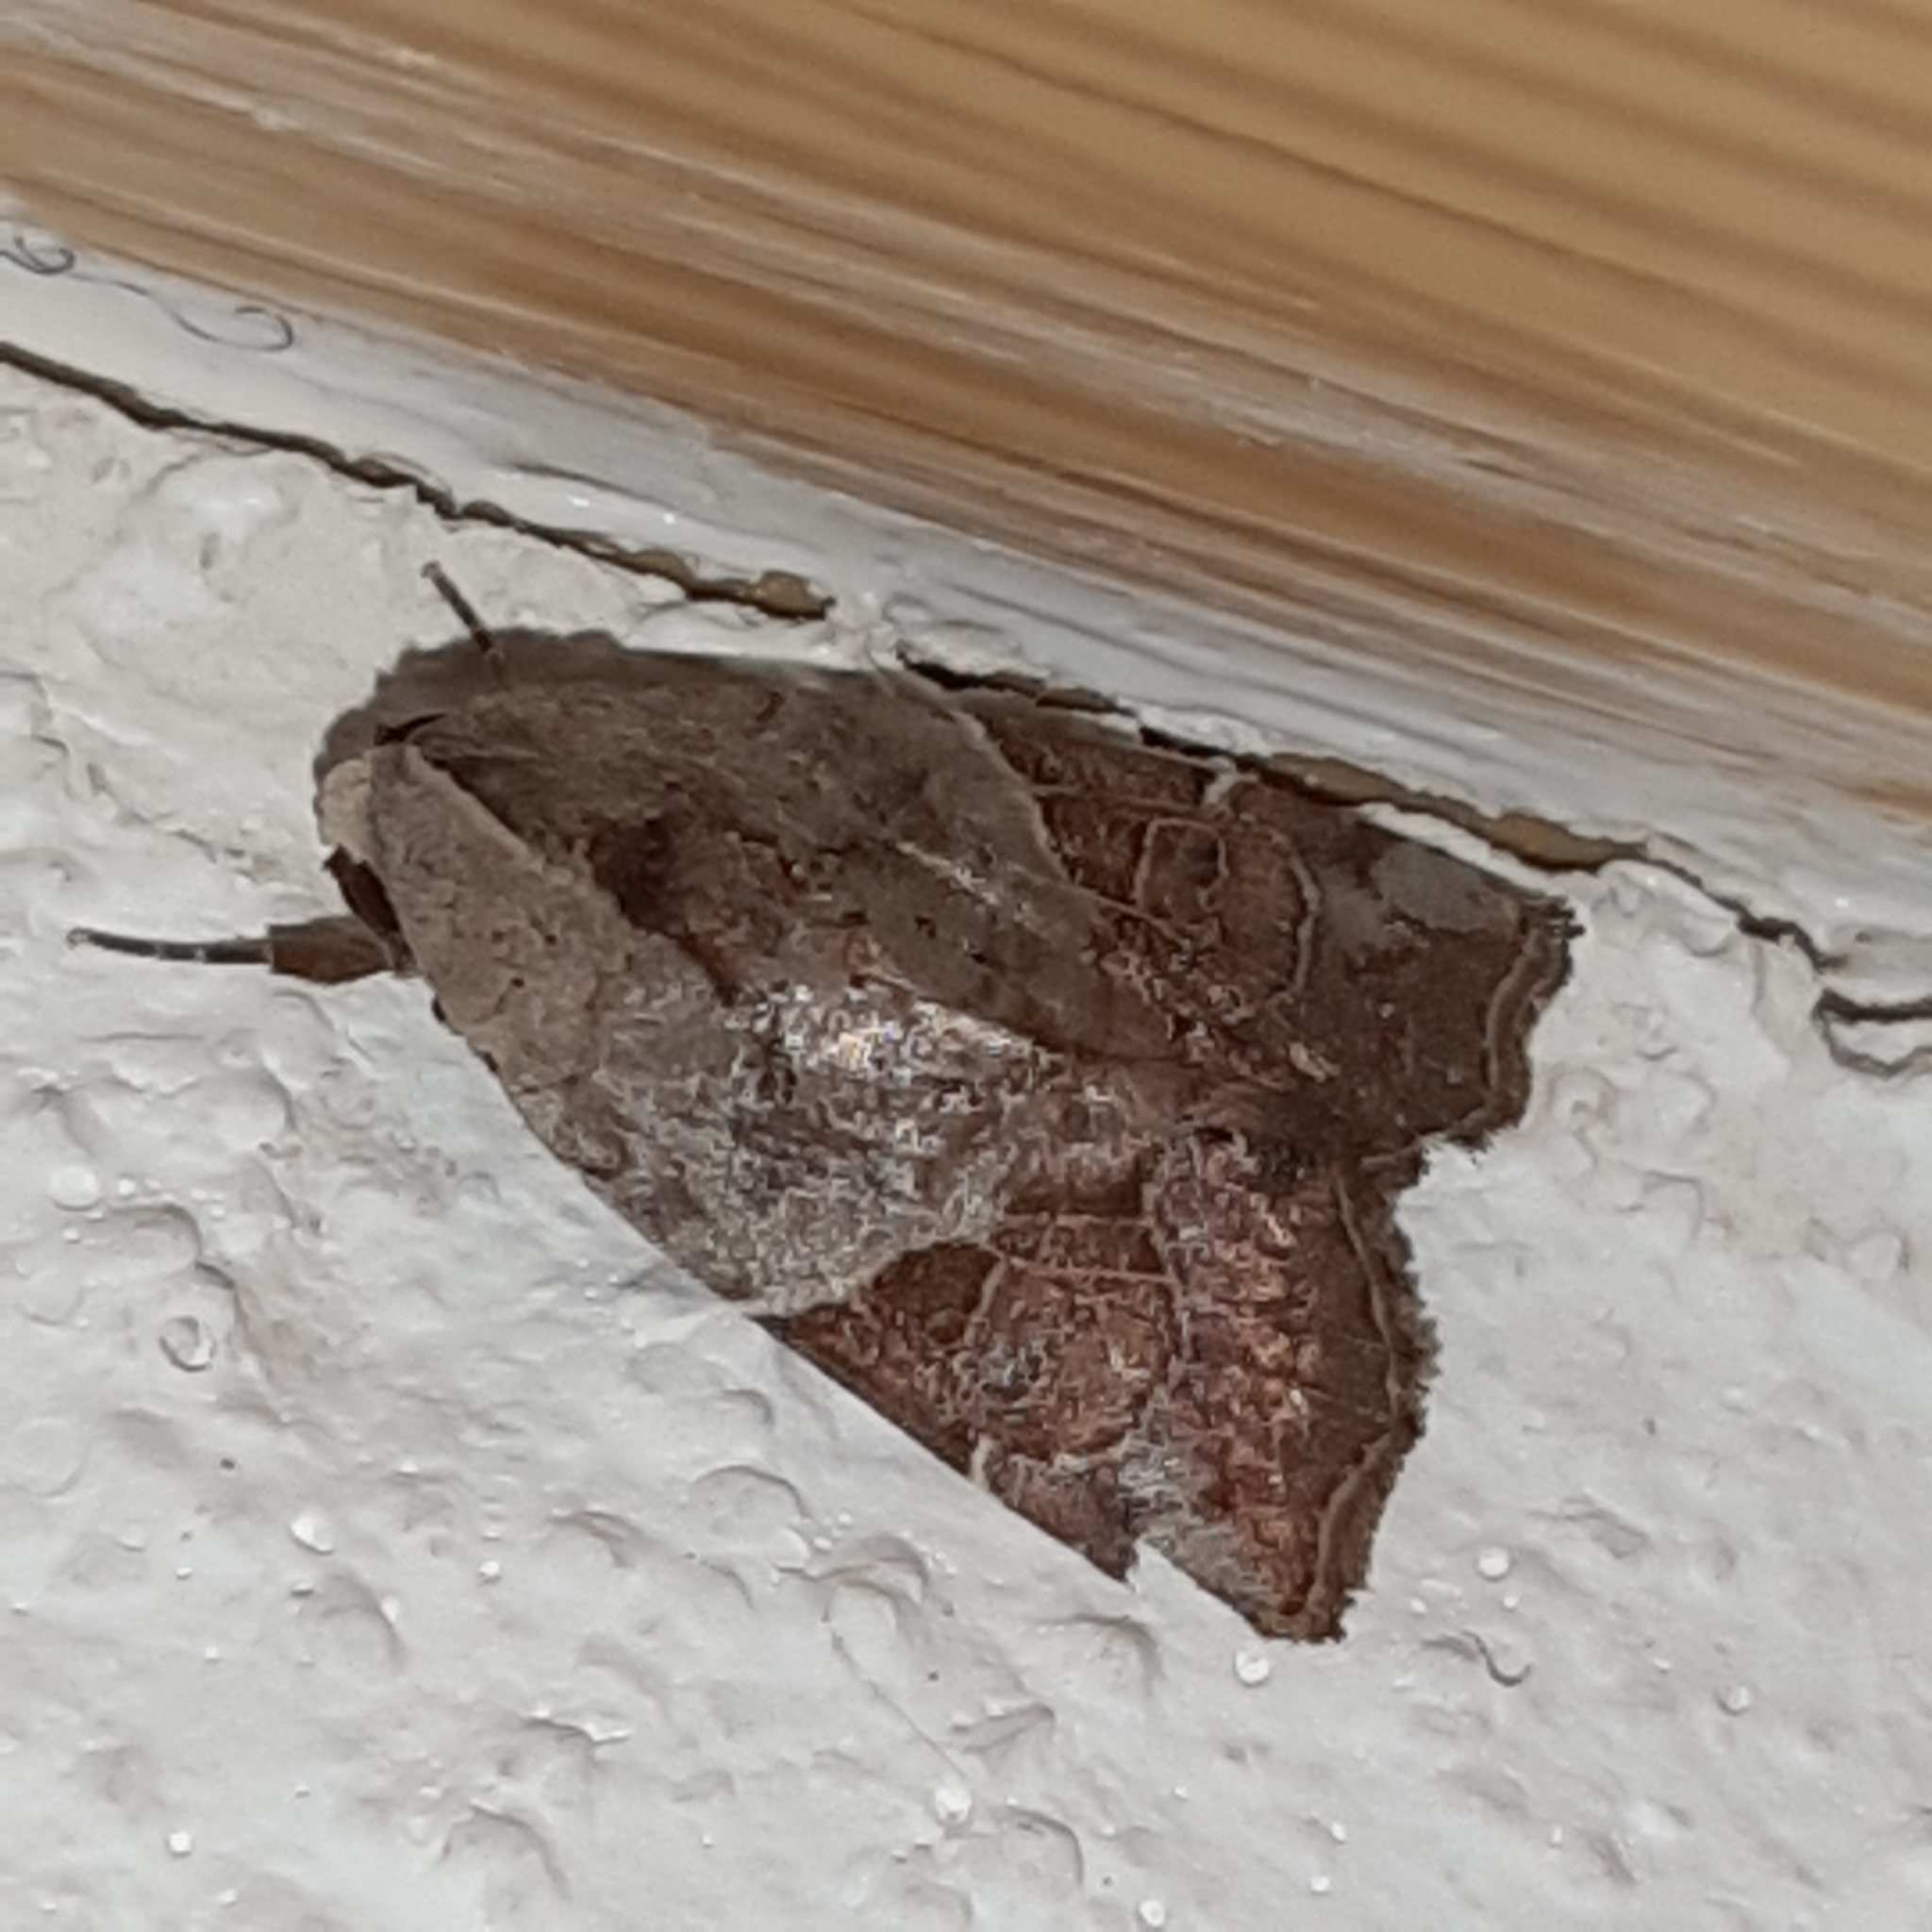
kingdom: Animalia
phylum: Arthropoda
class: Insecta
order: Lepidoptera
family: Noctuidae
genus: Gonodes
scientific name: Gonodes liquida
